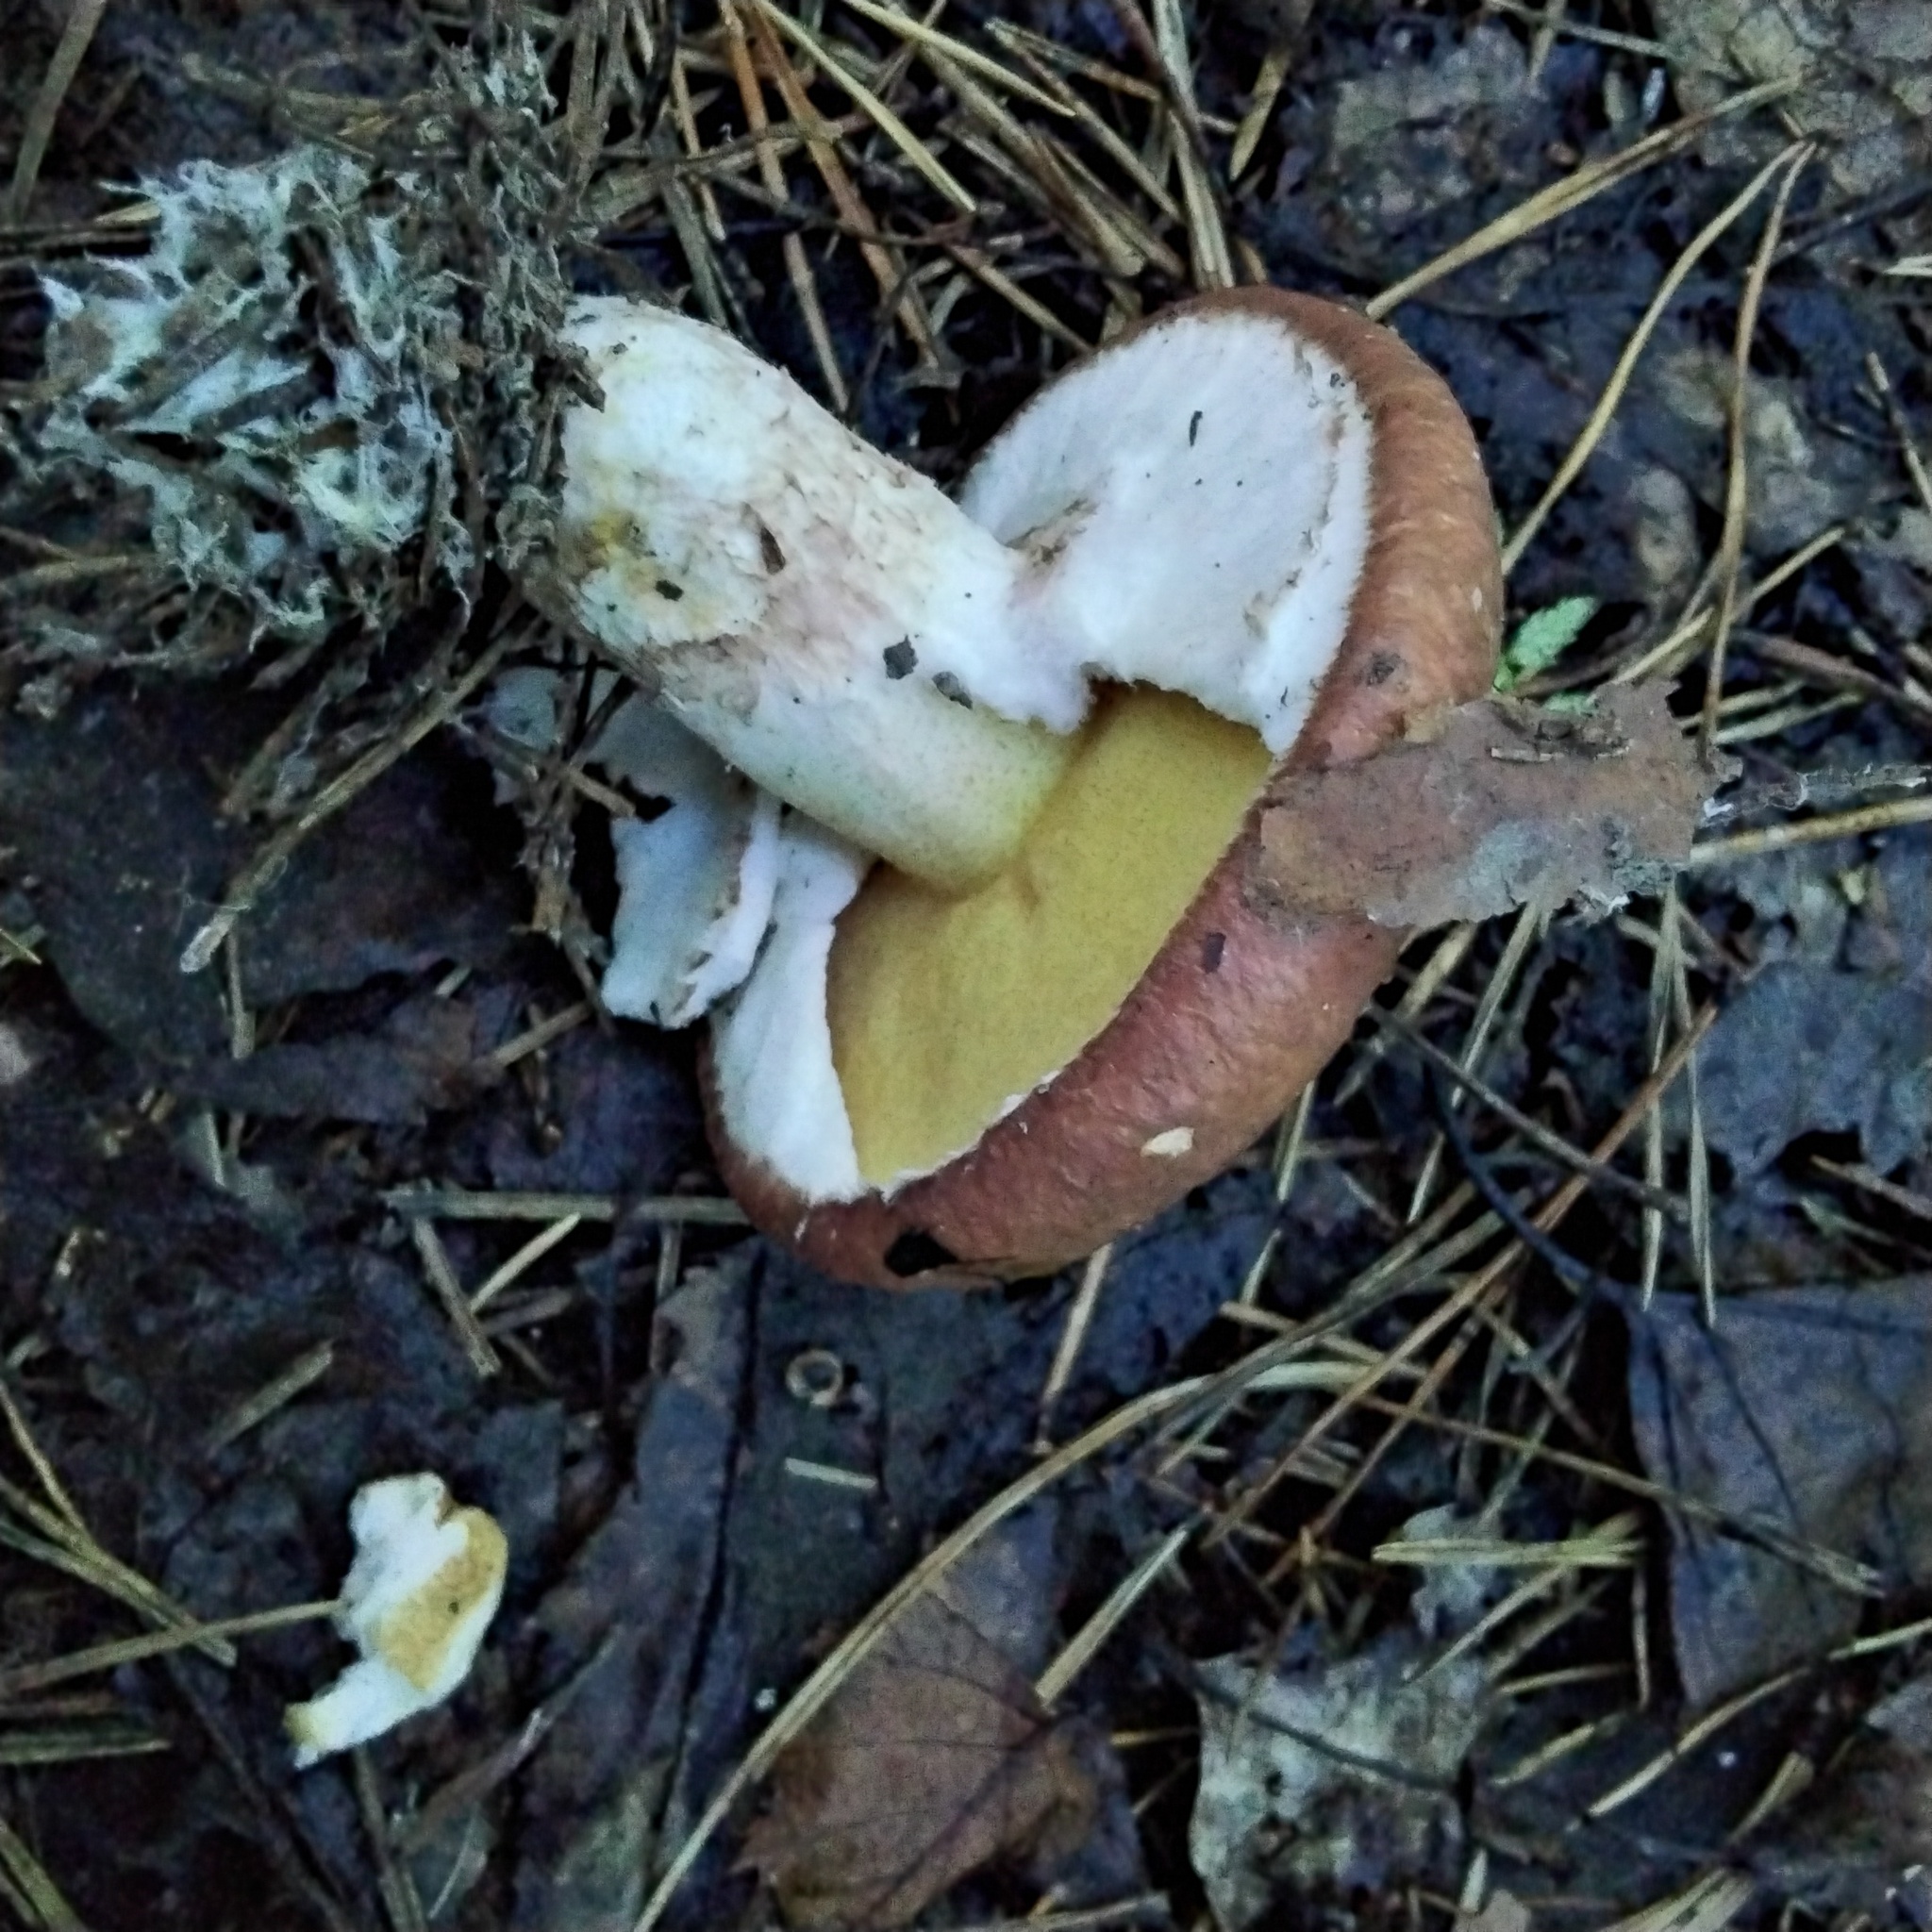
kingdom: Fungi
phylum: Basidiomycota
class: Agaricomycetes
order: Boletales
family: Suillaceae
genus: Suillus
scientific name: Suillus luteus
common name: Slippery jack
